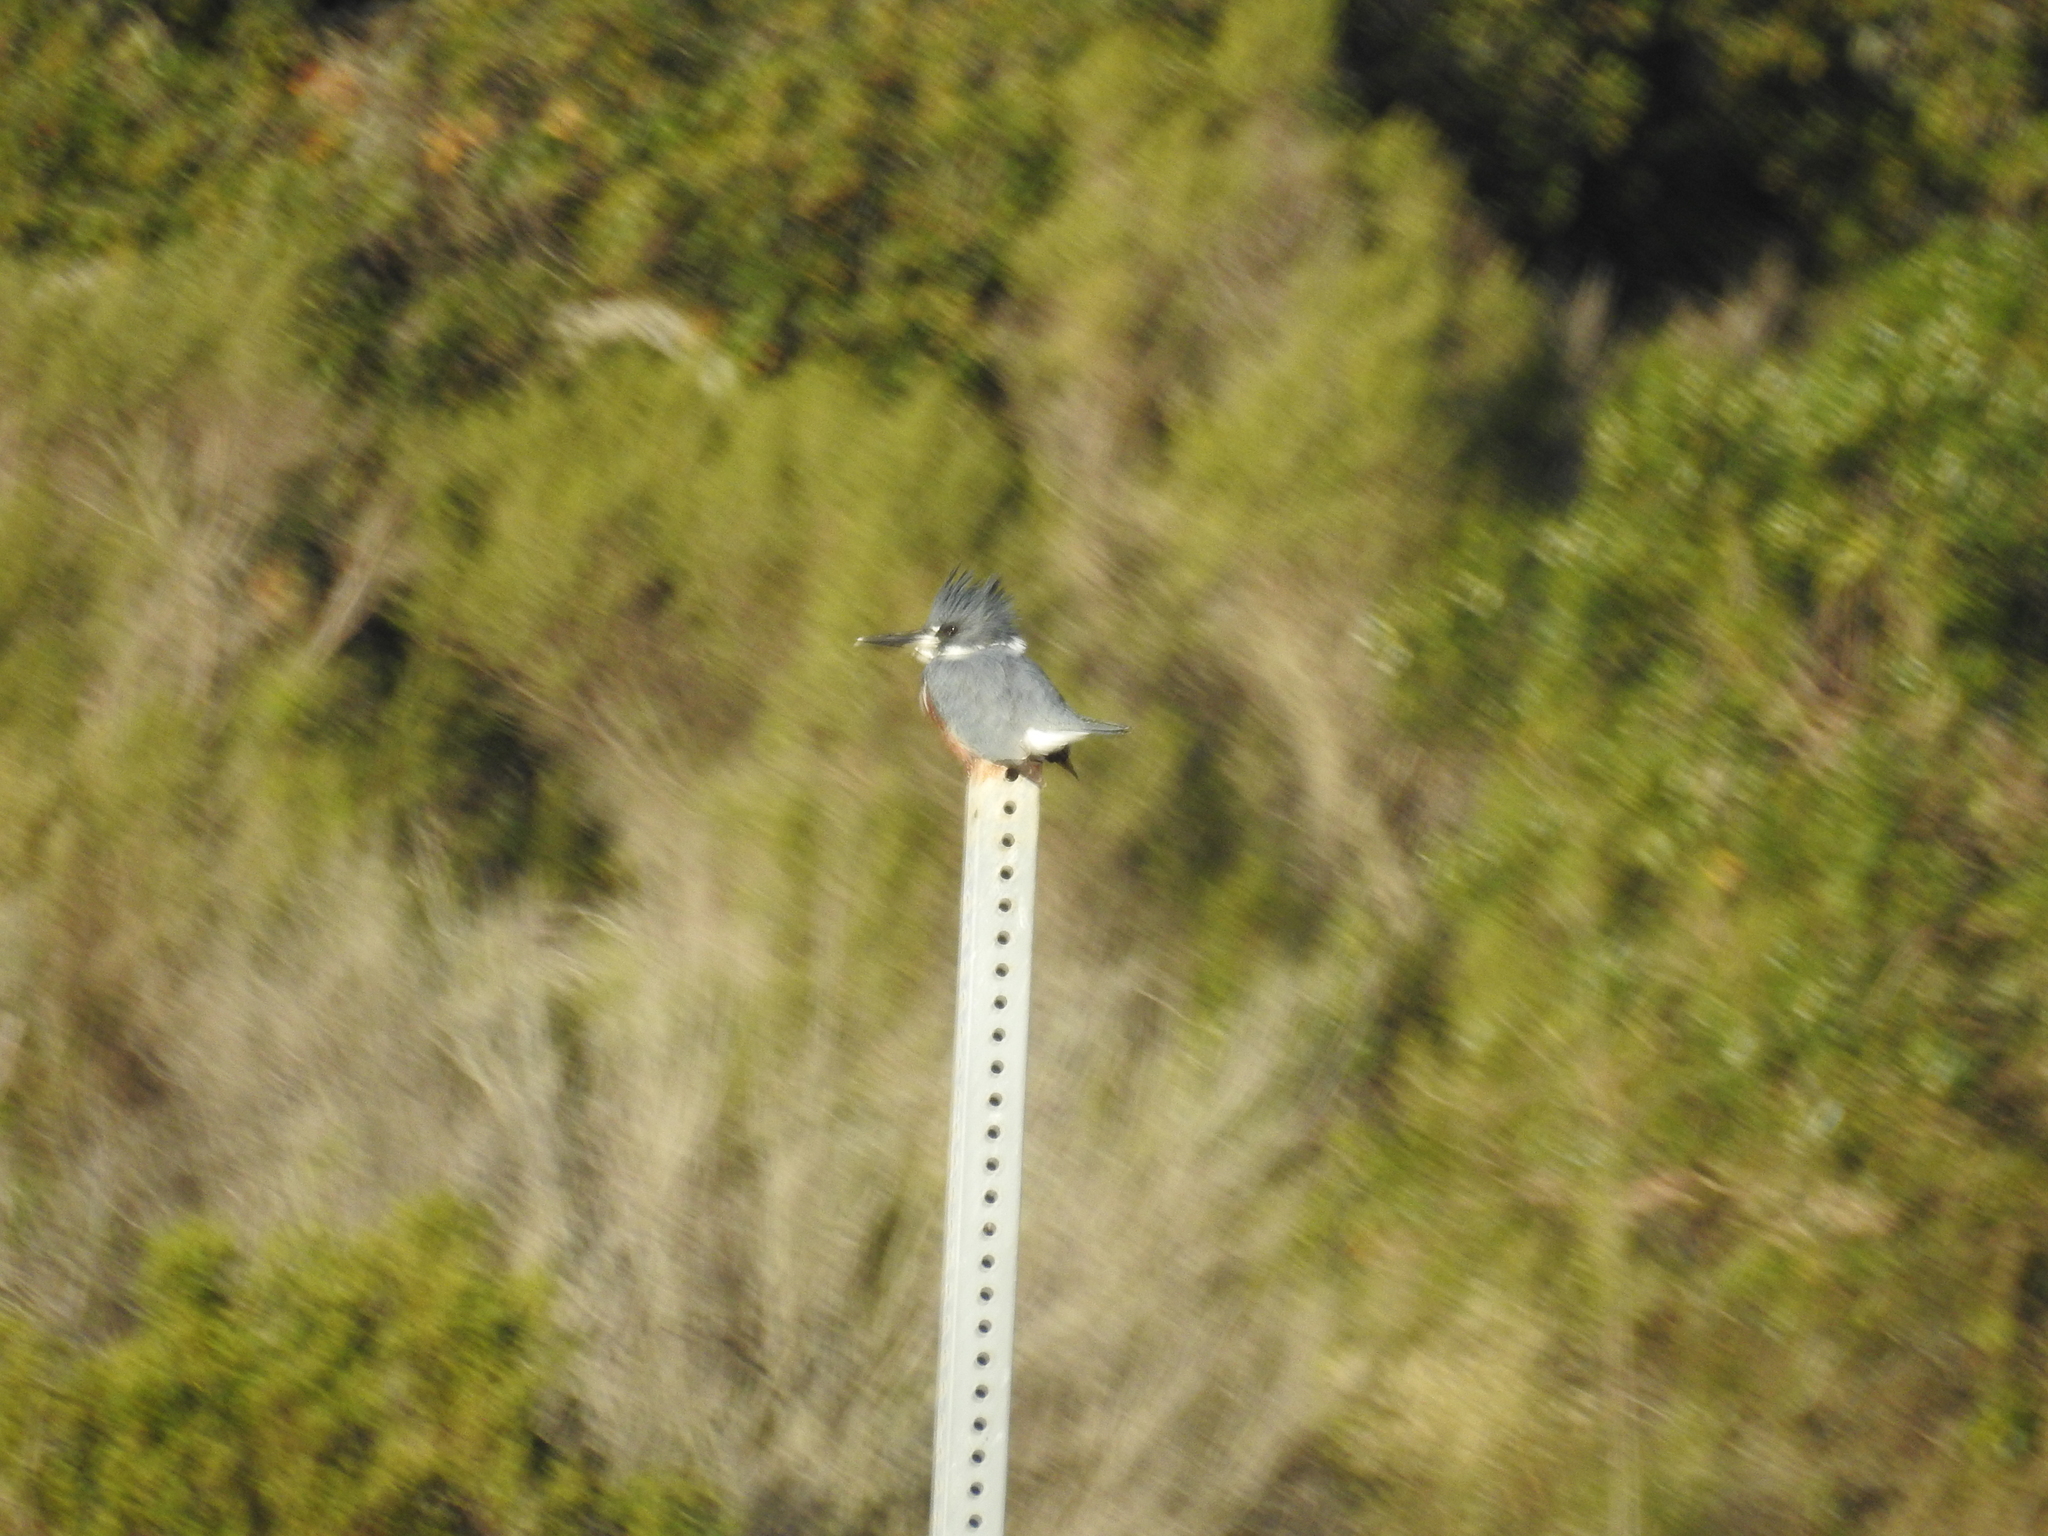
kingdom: Animalia
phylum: Chordata
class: Aves
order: Coraciiformes
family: Alcedinidae
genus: Megaceryle
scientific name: Megaceryle alcyon
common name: Belted kingfisher
